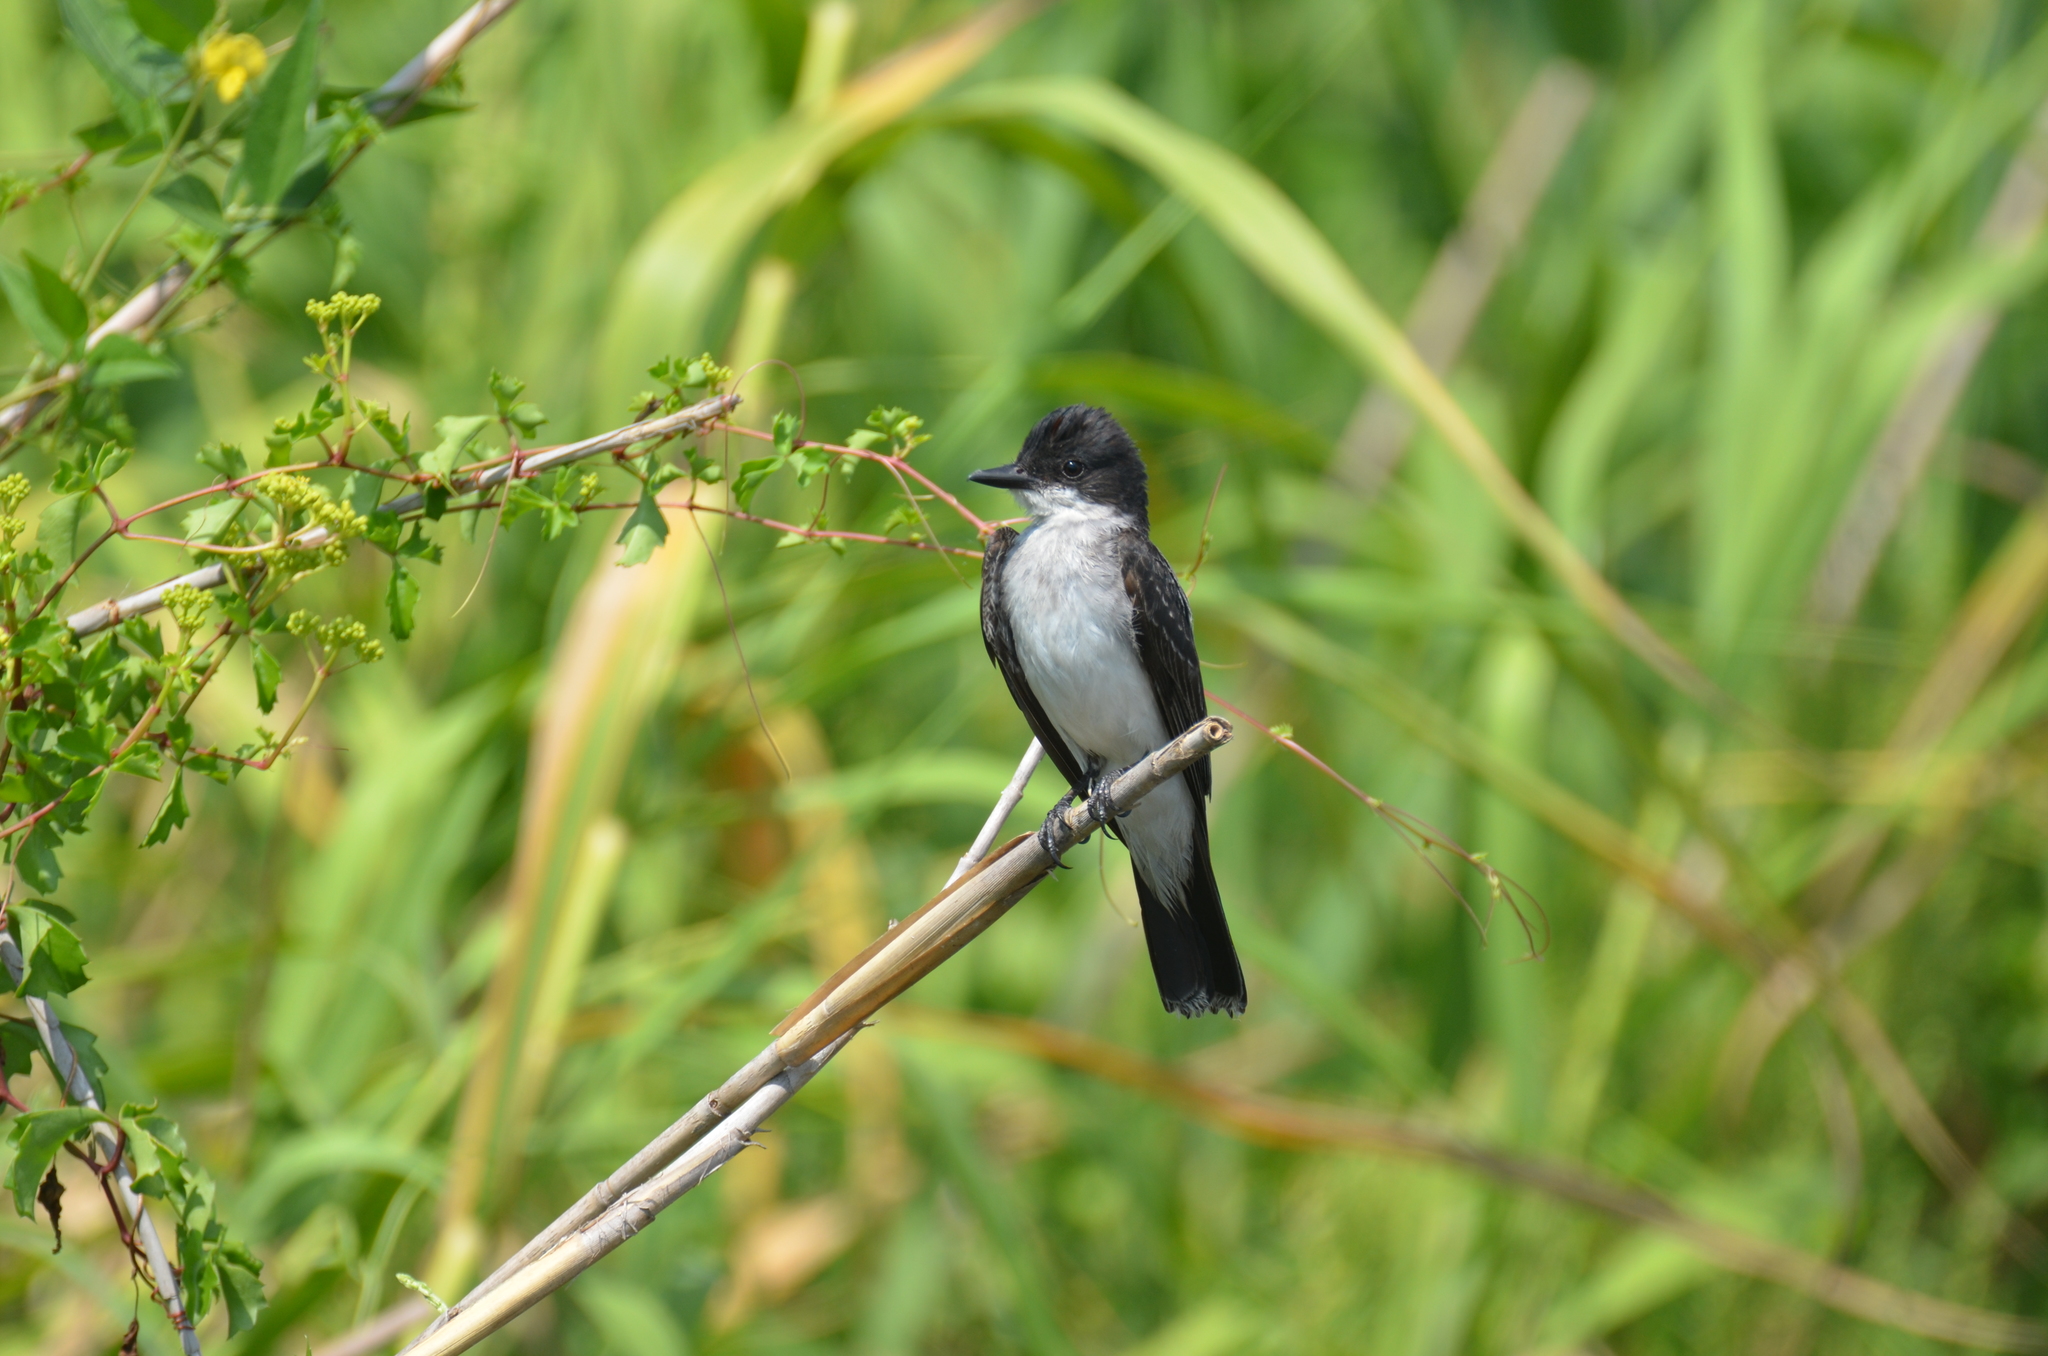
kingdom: Animalia
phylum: Chordata
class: Aves
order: Passeriformes
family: Tyrannidae
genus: Tyrannus
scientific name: Tyrannus tyrannus
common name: Eastern kingbird
